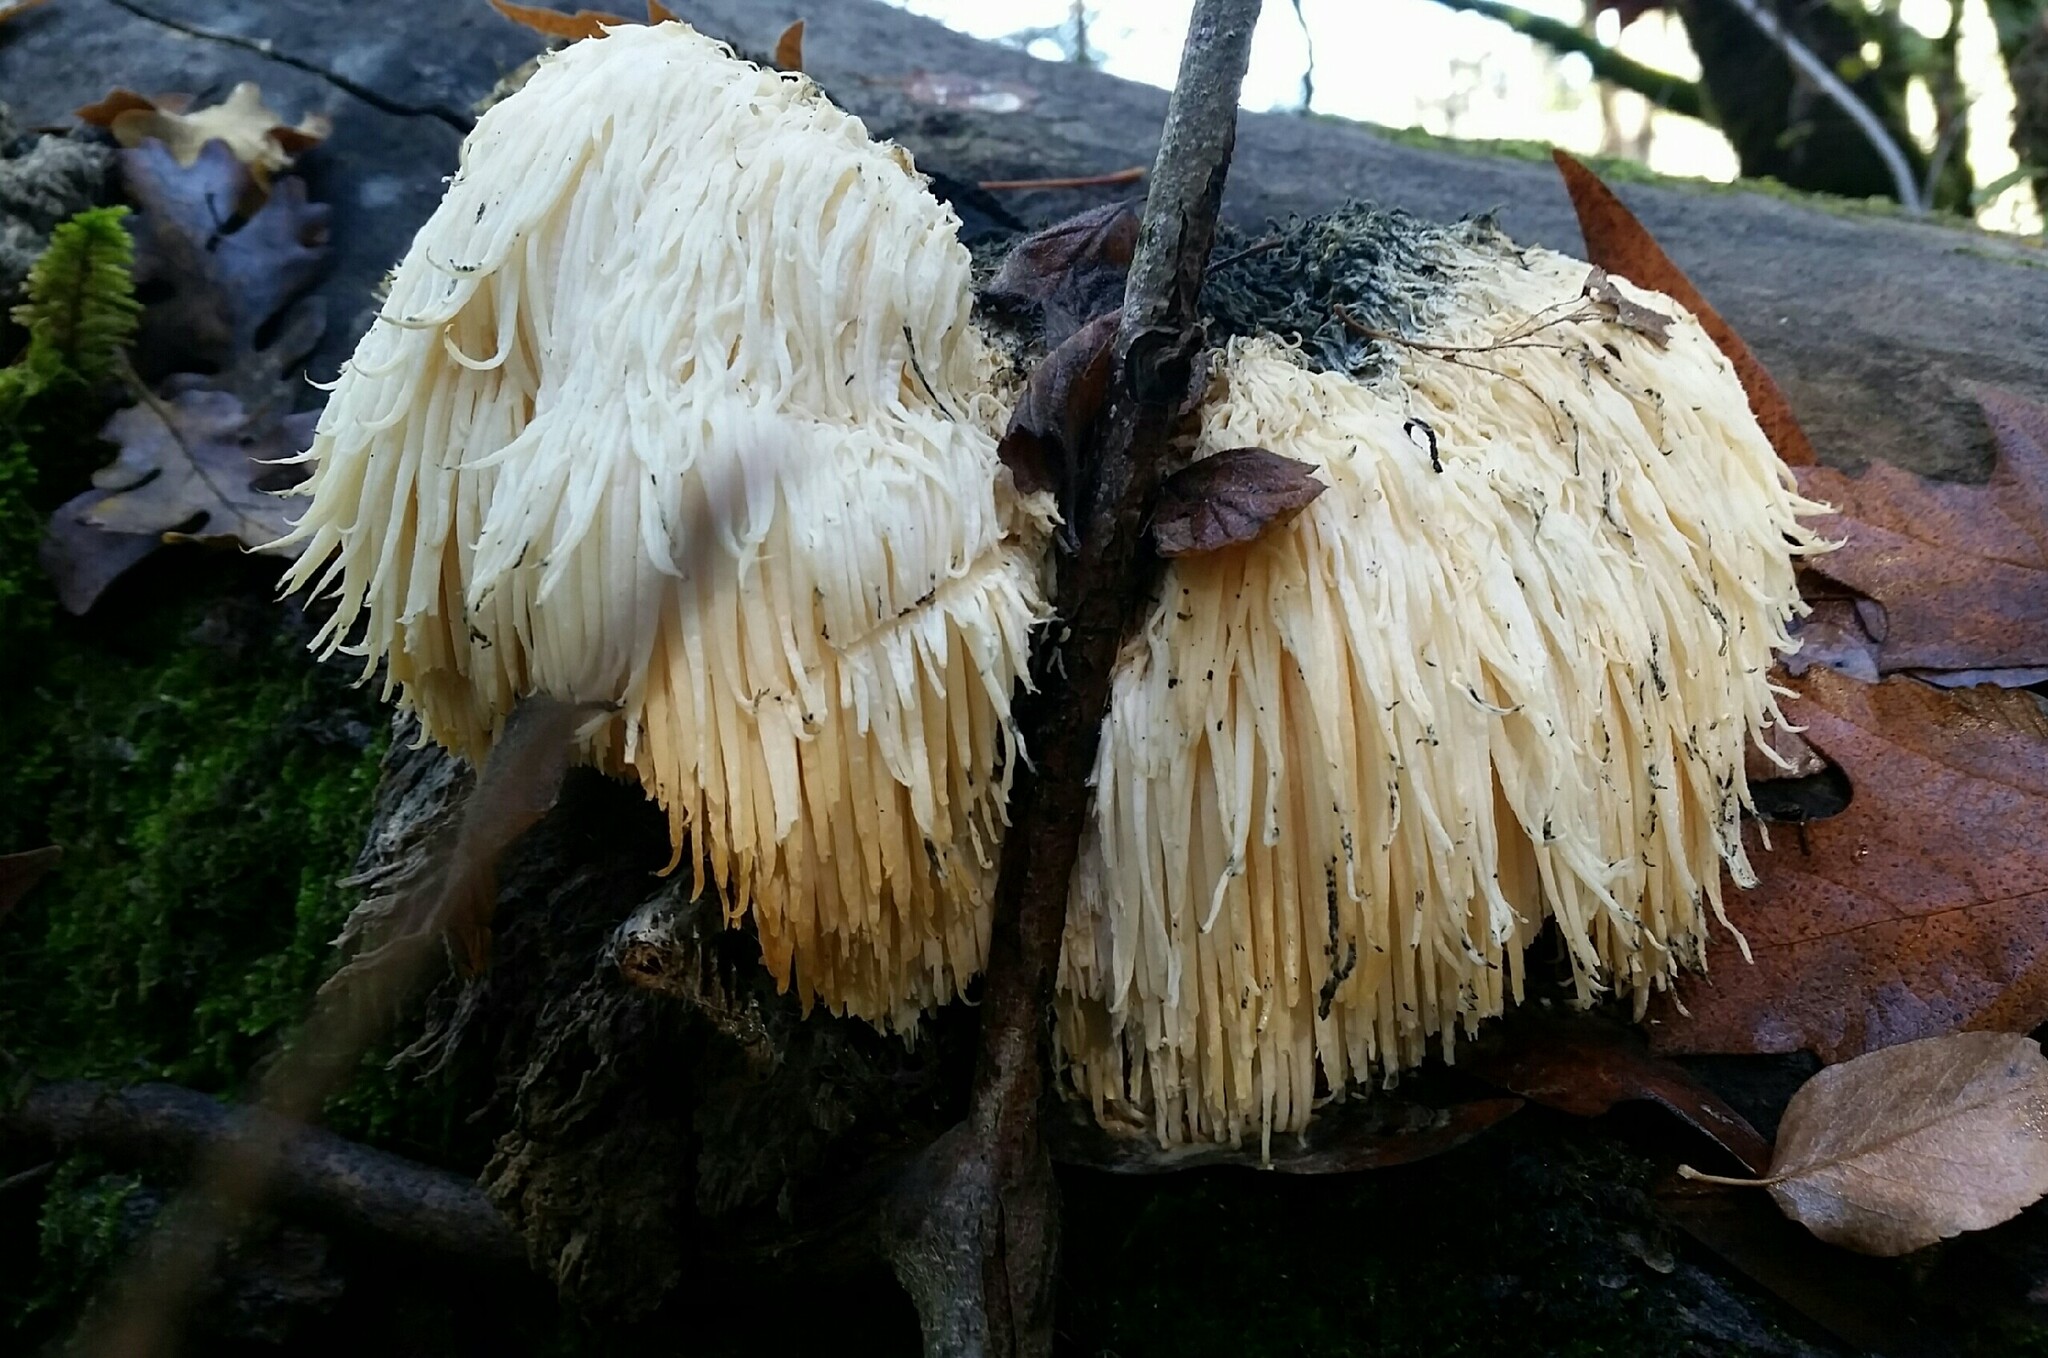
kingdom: Fungi
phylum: Basidiomycota
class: Agaricomycetes
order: Russulales
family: Hericiaceae
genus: Hericium
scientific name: Hericium erinaceus
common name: Bearded tooth
